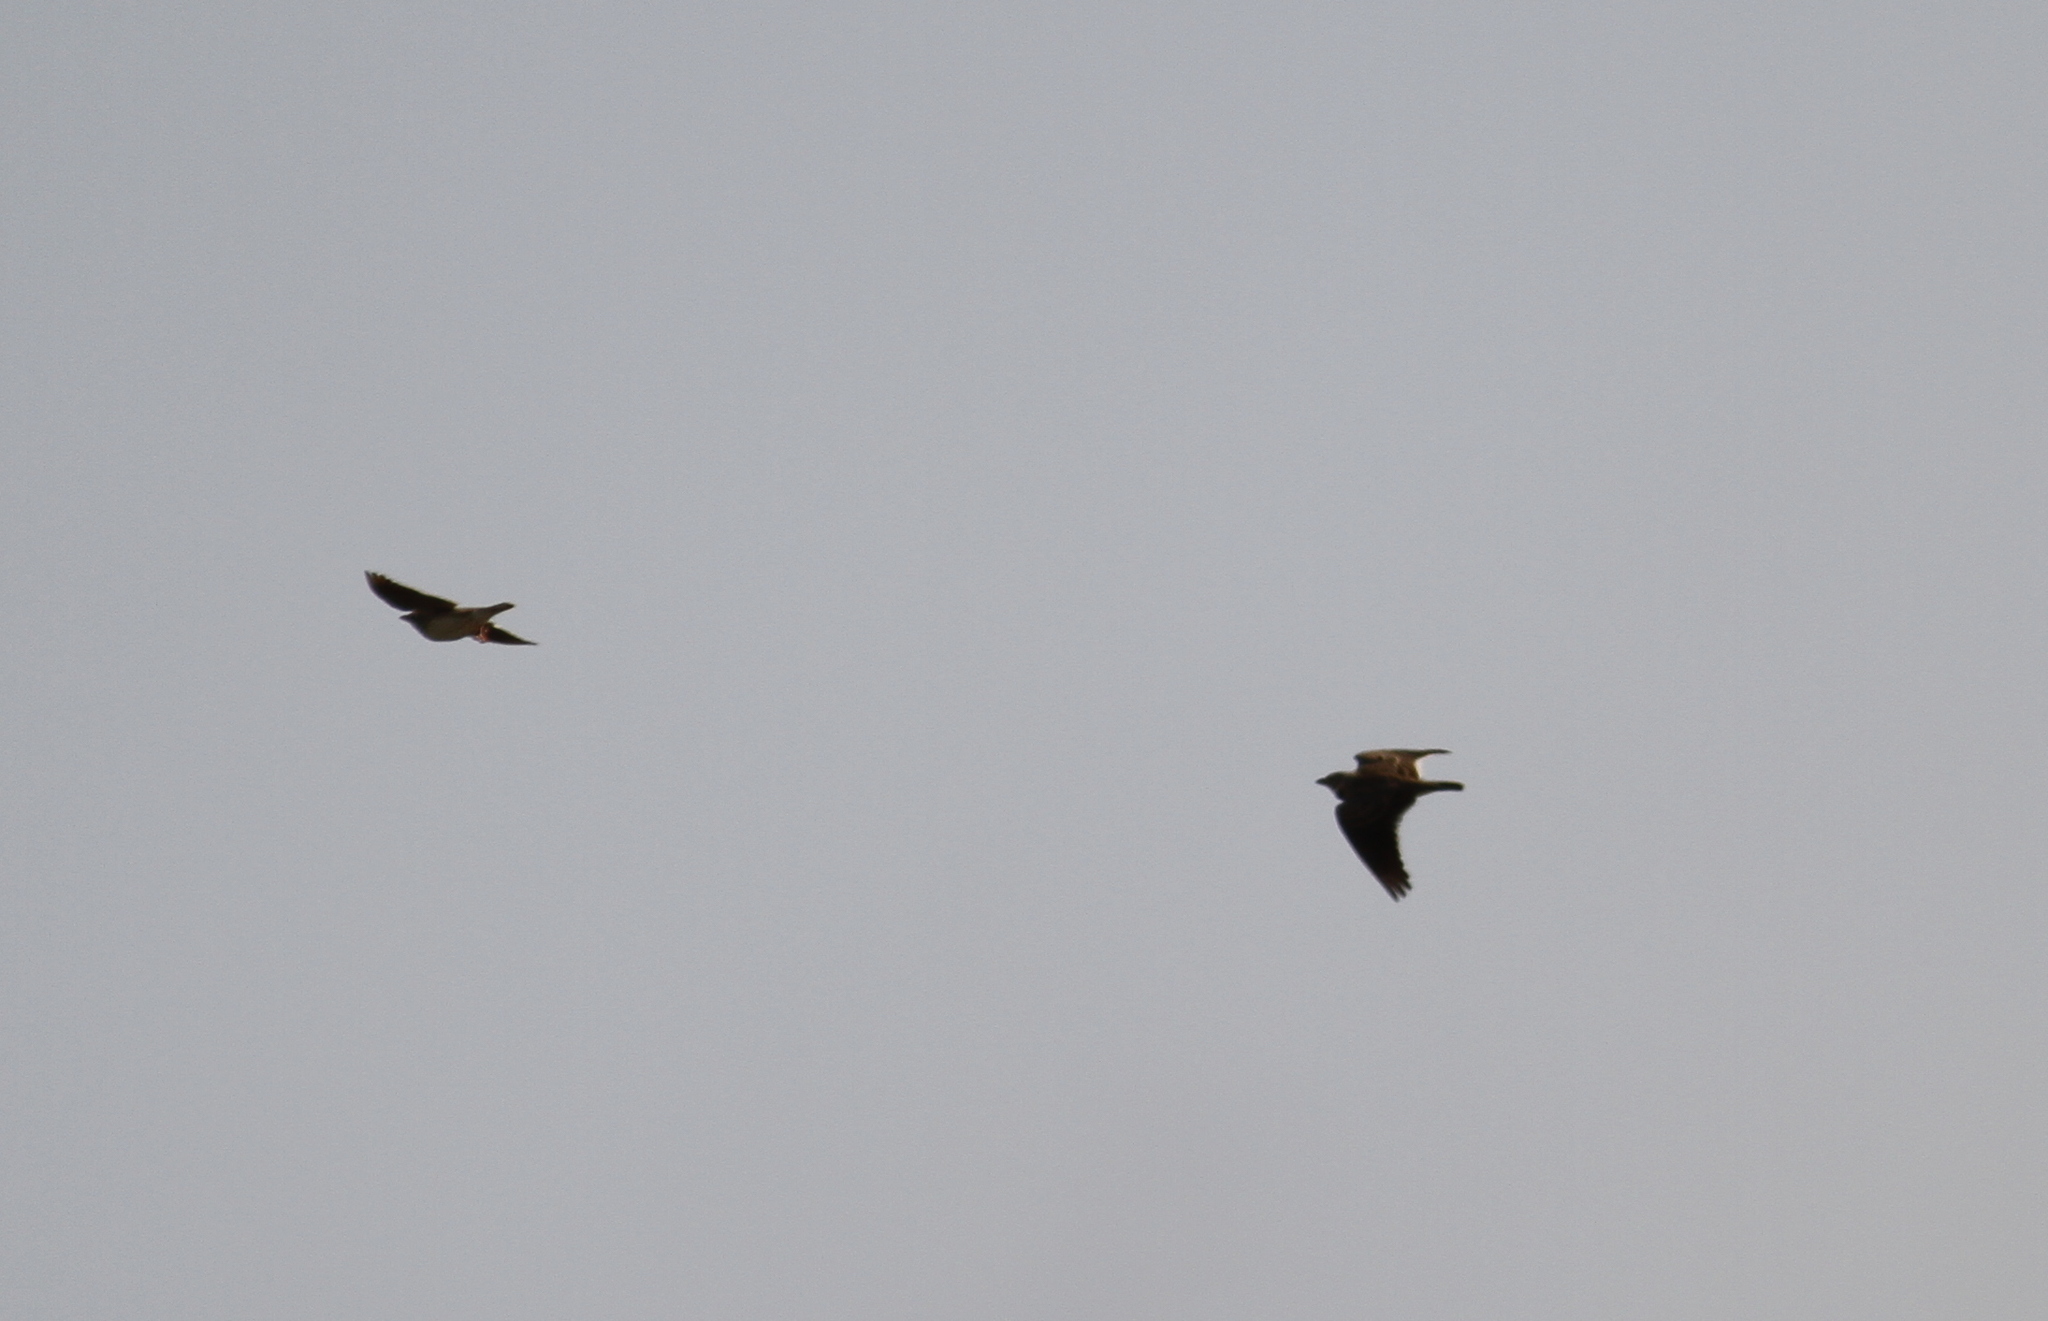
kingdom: Animalia
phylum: Chordata
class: Aves
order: Passeriformes
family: Alaudidae
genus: Melanocorypha
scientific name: Melanocorypha calandra
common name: Calandra lark
